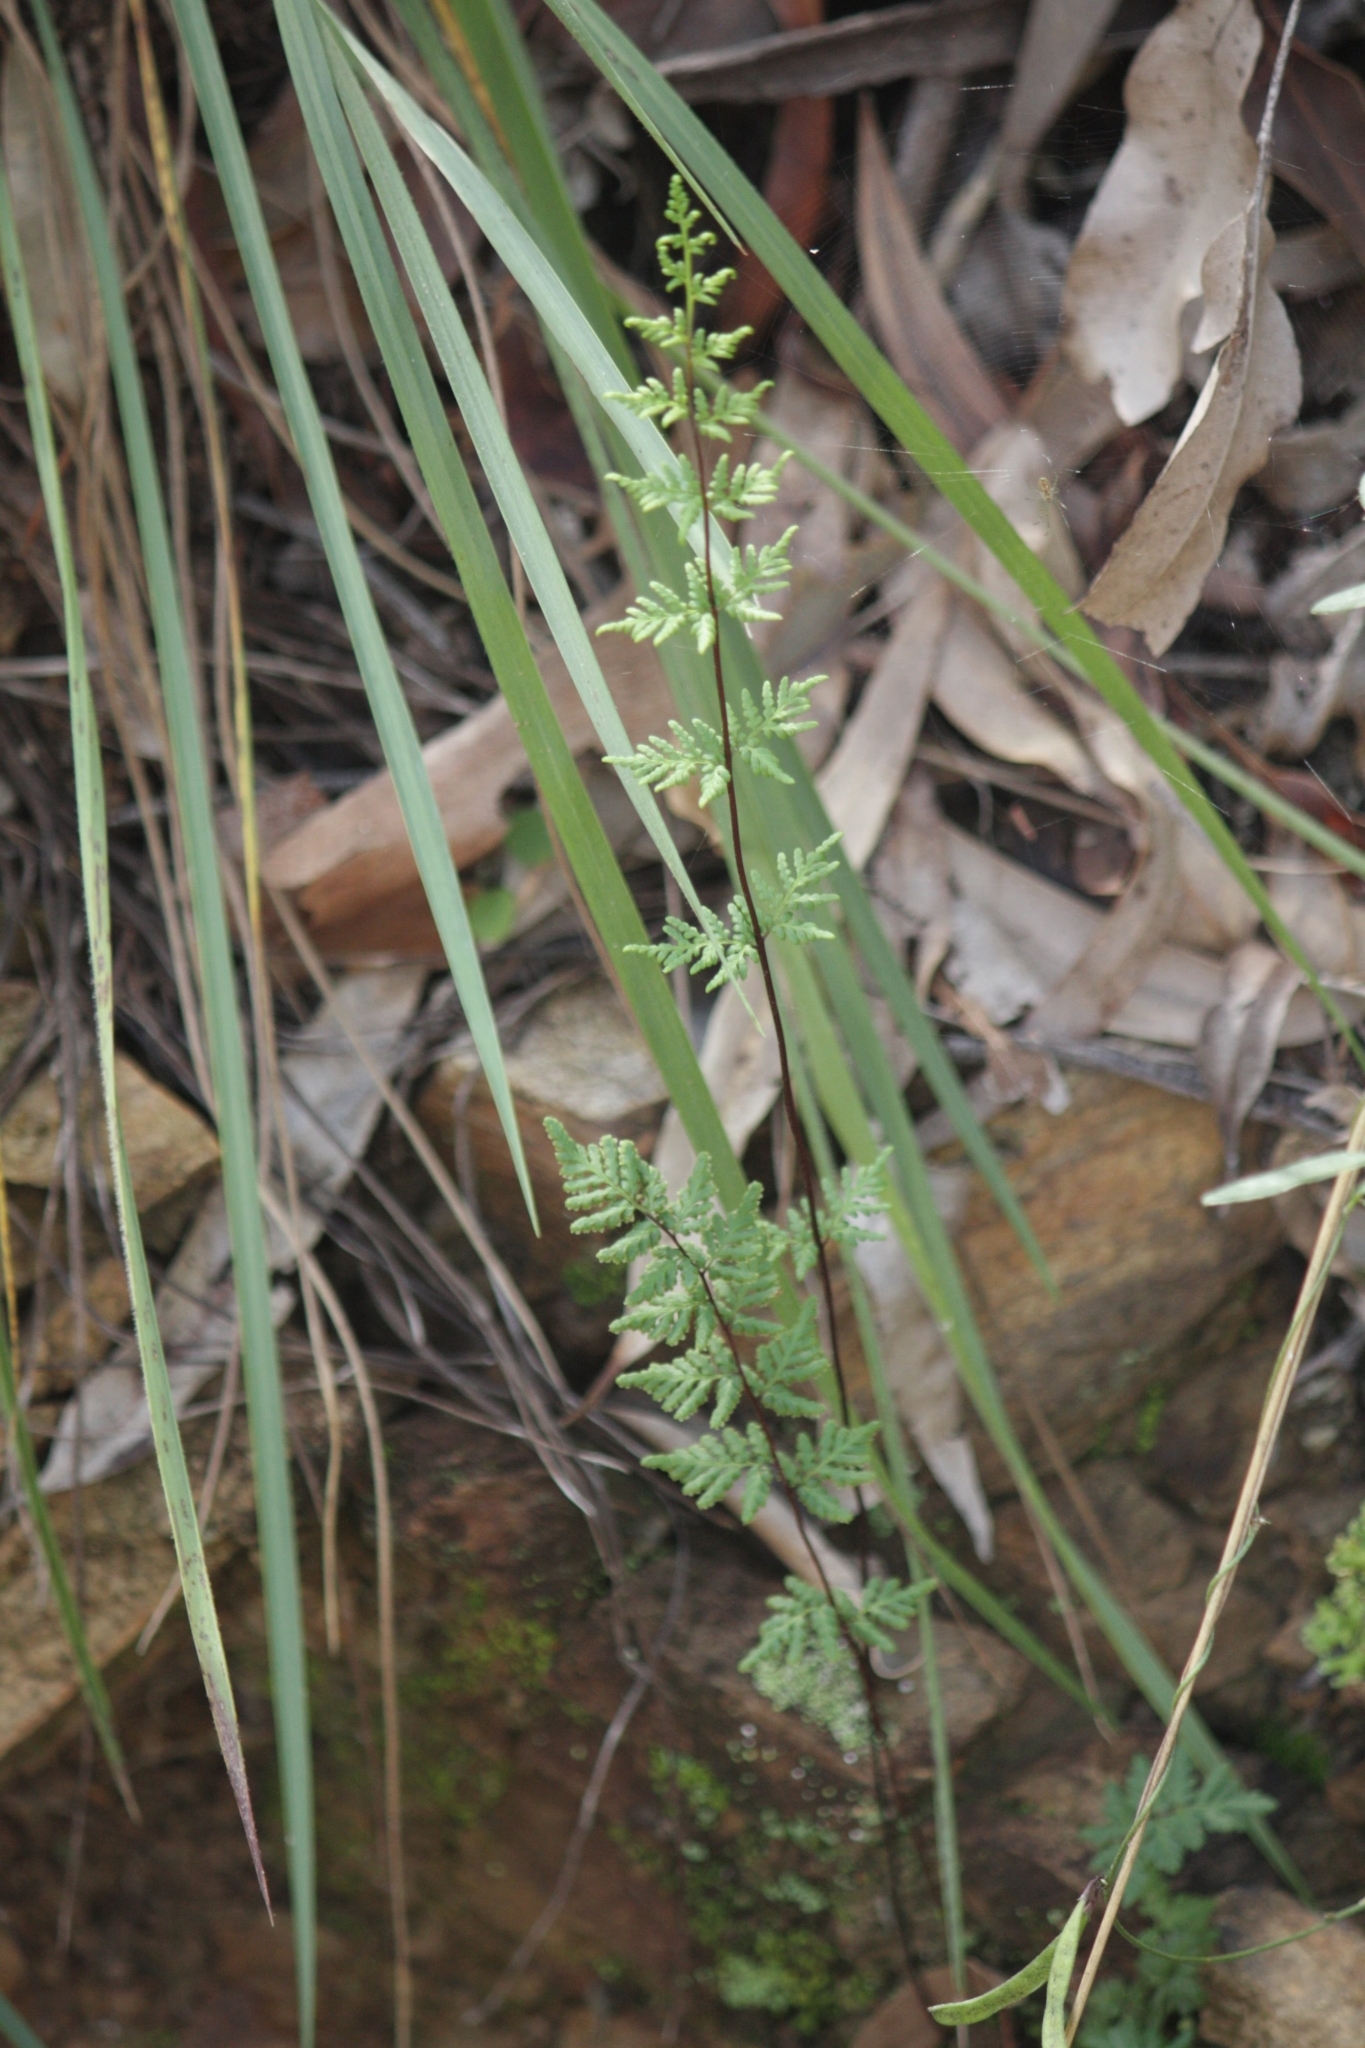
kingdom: Plantae
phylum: Tracheophyta
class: Polypodiopsida
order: Polypodiales
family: Pteridaceae
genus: Cheilanthes
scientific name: Cheilanthes sieberi
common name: Mulga fern
